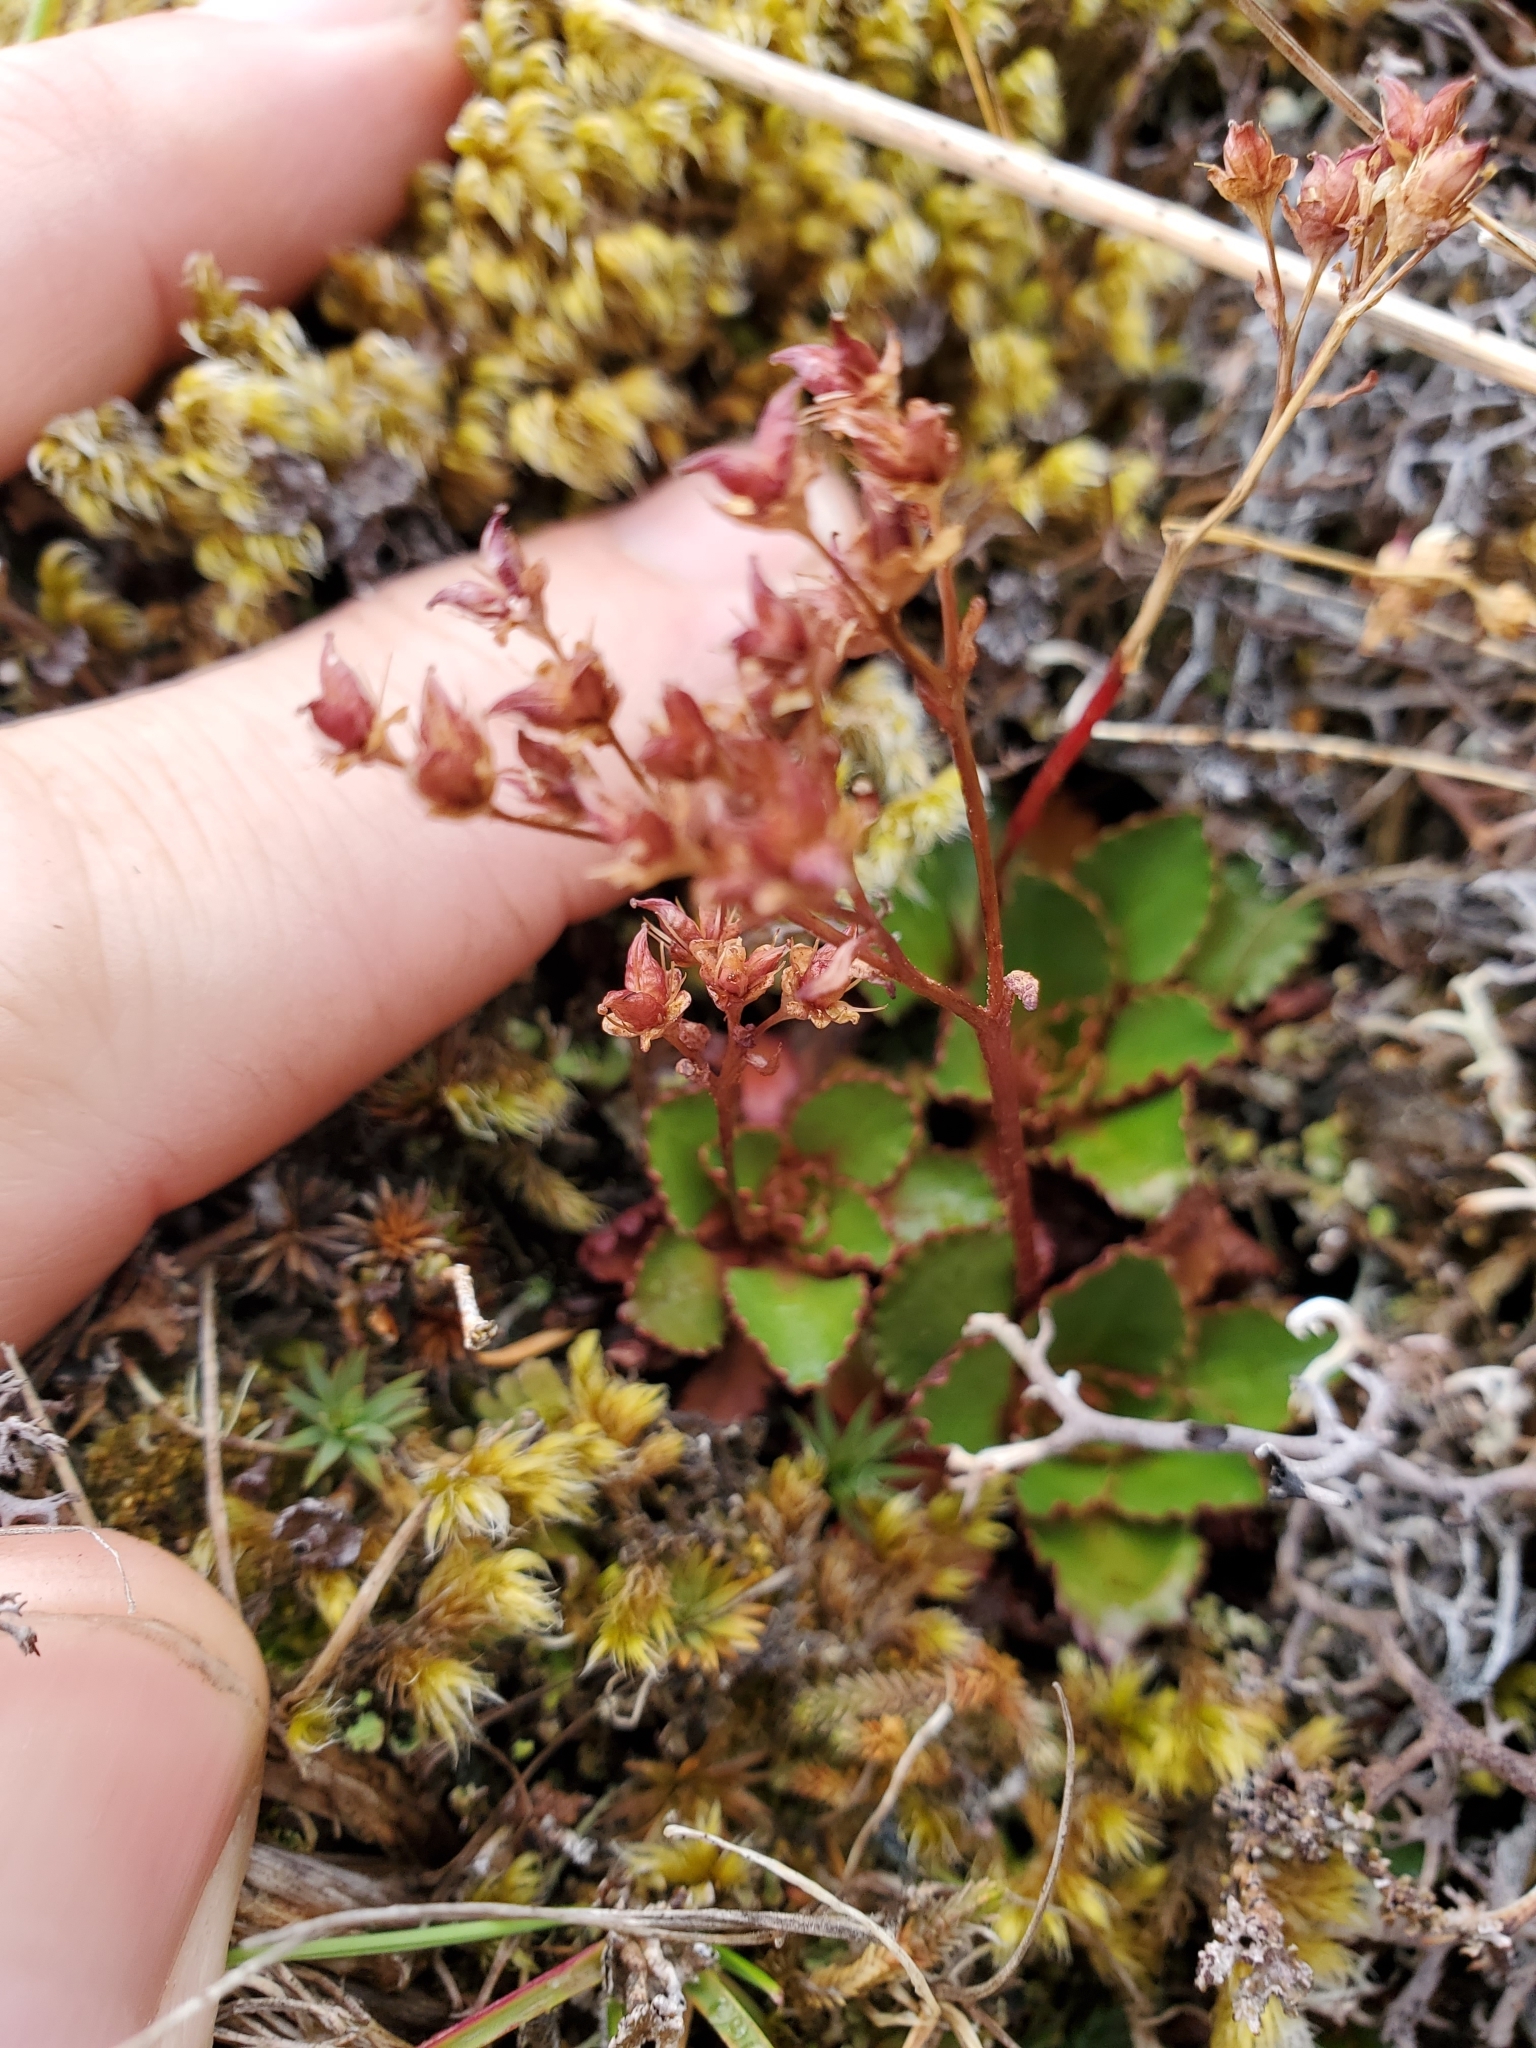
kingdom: Plantae
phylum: Tracheophyta
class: Magnoliopsida
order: Saxifragales
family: Saxifragaceae
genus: Micranthes
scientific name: Micranthes rufidula
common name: Rustyhair saxifrage
